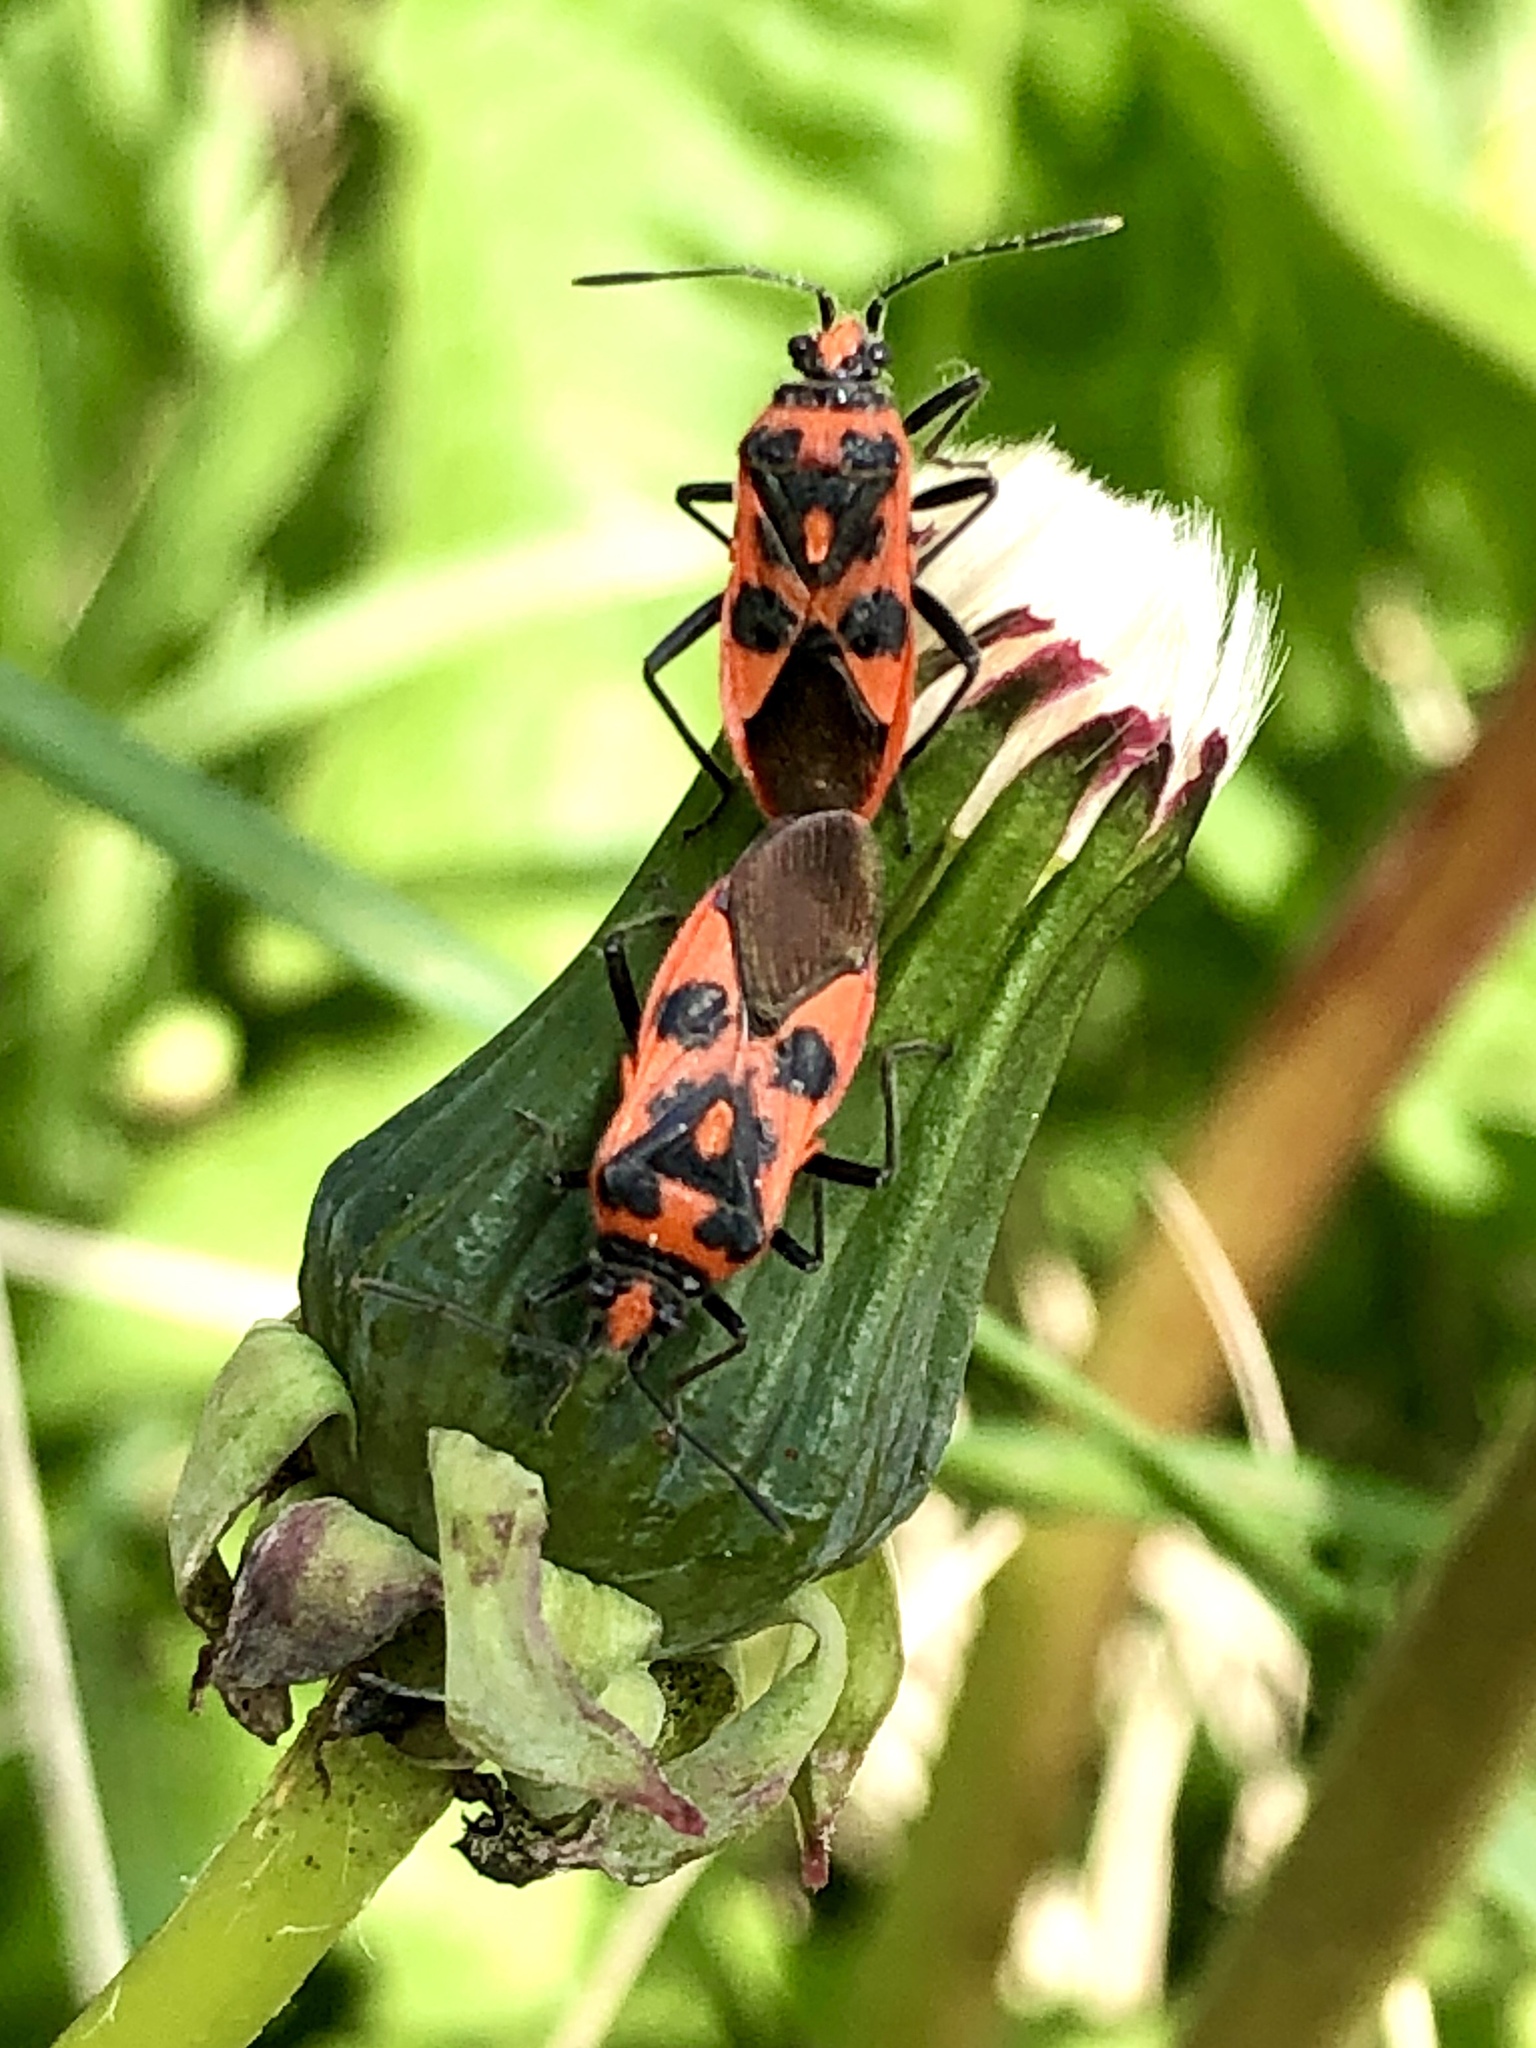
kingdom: Animalia
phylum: Arthropoda
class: Insecta
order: Hemiptera
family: Rhopalidae
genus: Corizus
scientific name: Corizus hyoscyami
